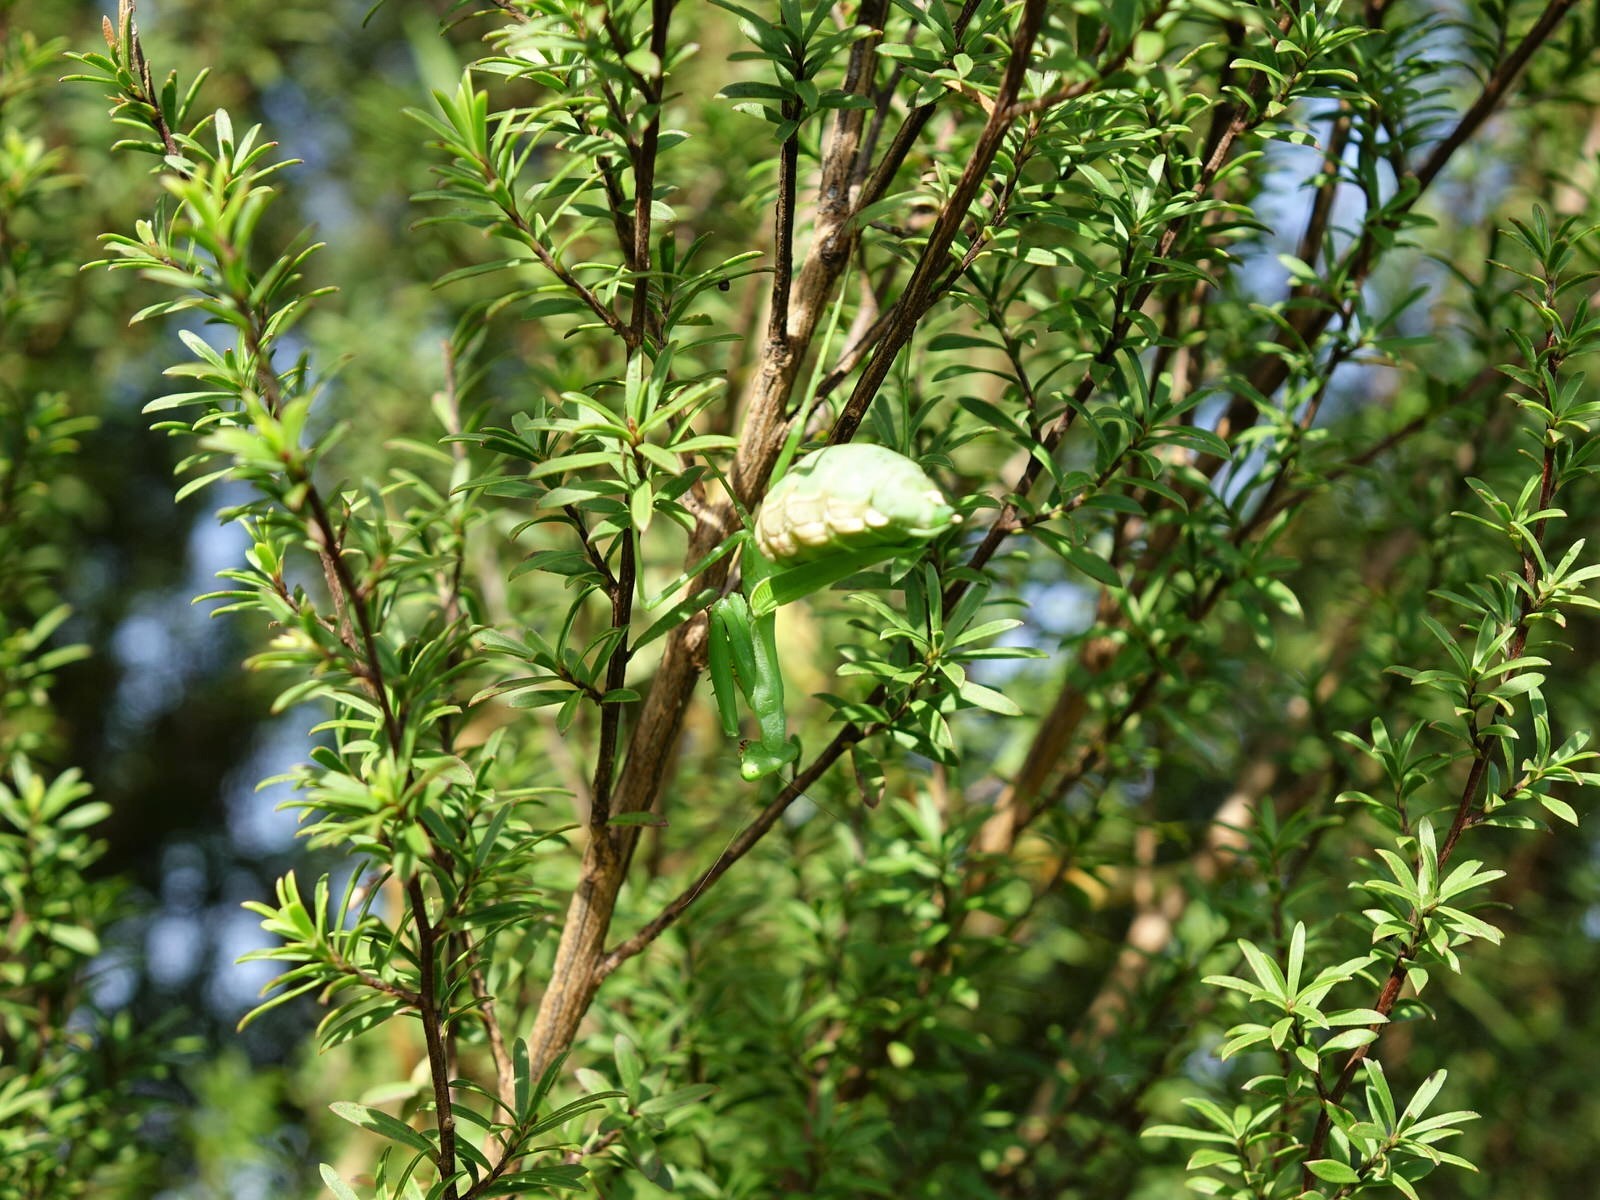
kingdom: Animalia
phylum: Arthropoda
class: Insecta
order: Mantodea
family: Miomantidae
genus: Miomantis
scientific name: Miomantis caffra
